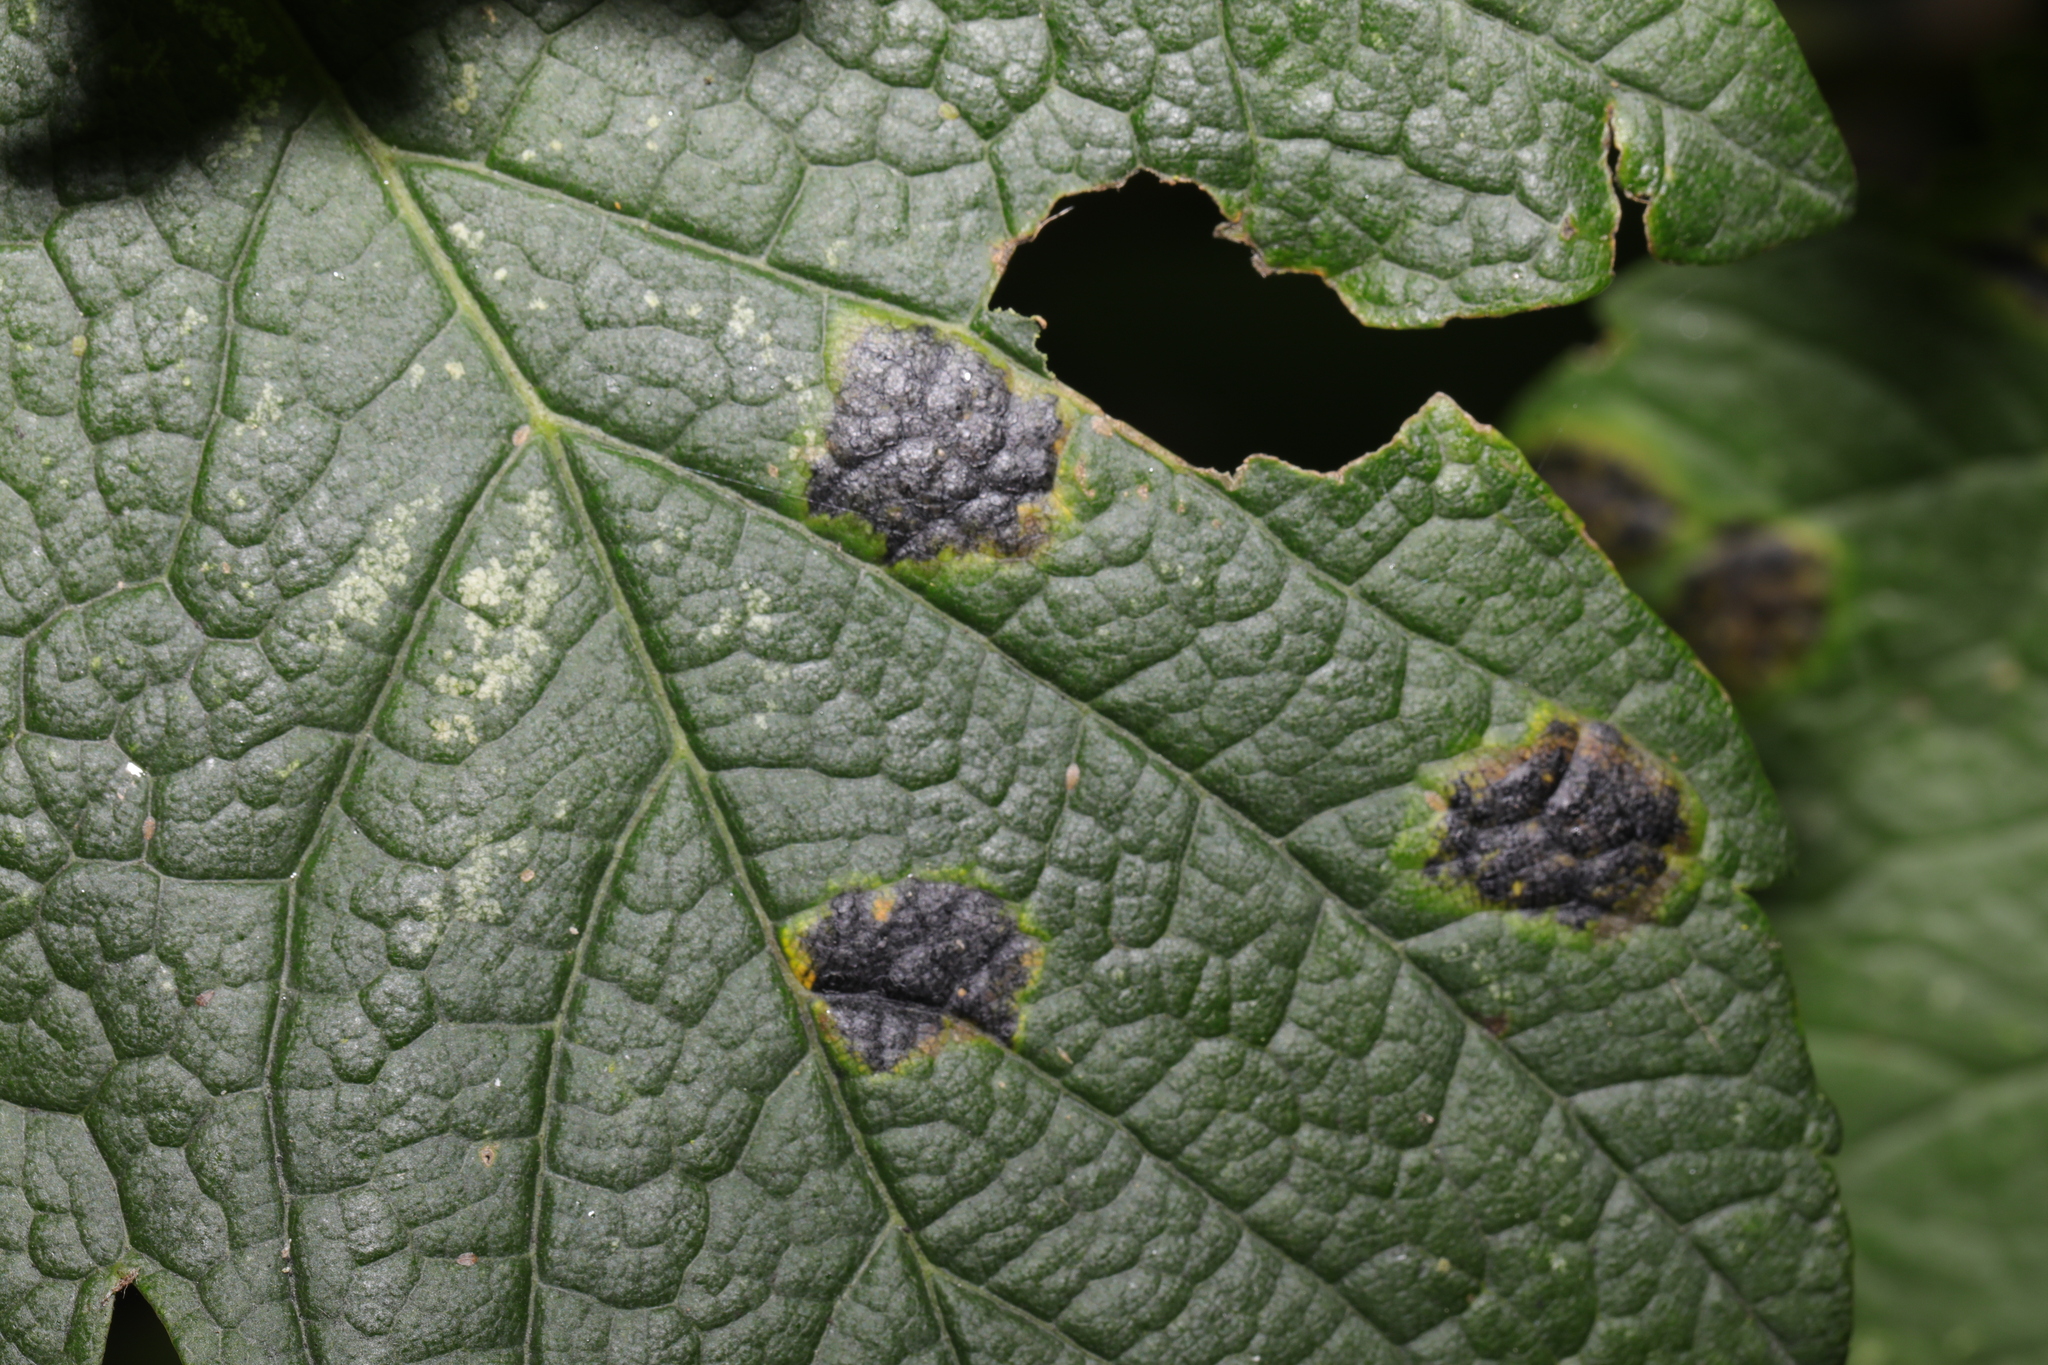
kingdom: Fungi
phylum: Ascomycota
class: Leotiomycetes
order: Rhytismatales
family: Rhytismataceae
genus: Rhytisma
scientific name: Rhytisma acerinum
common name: European tar spot
